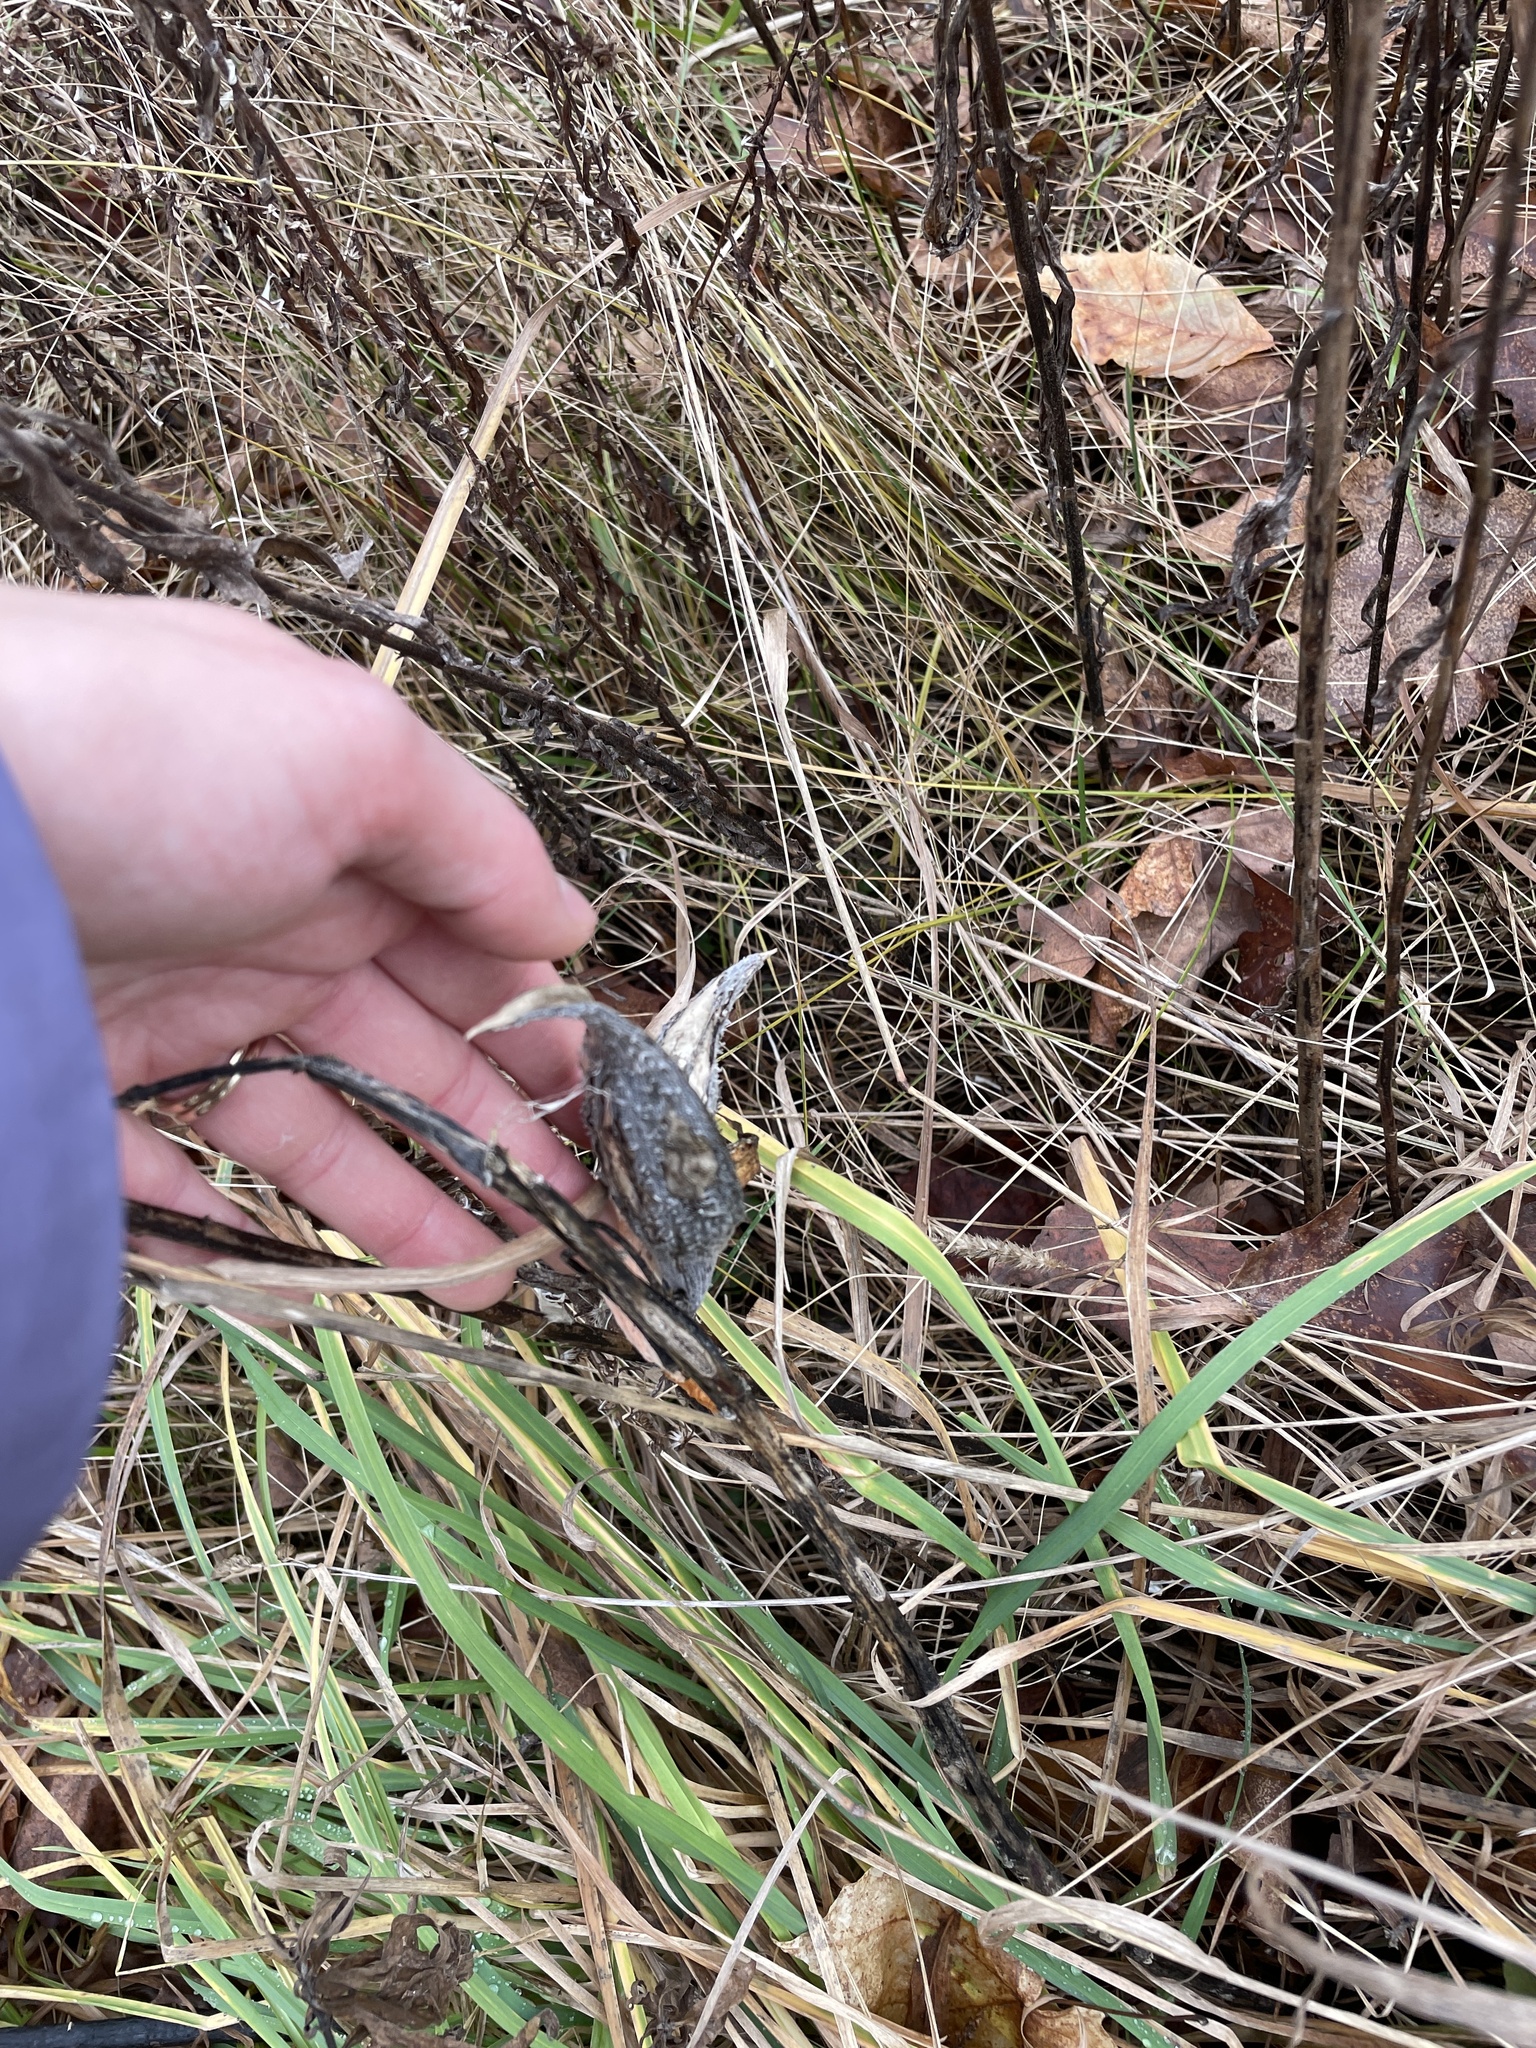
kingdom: Plantae
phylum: Tracheophyta
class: Magnoliopsida
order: Gentianales
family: Apocynaceae
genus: Asclepias
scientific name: Asclepias syriaca
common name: Common milkweed
